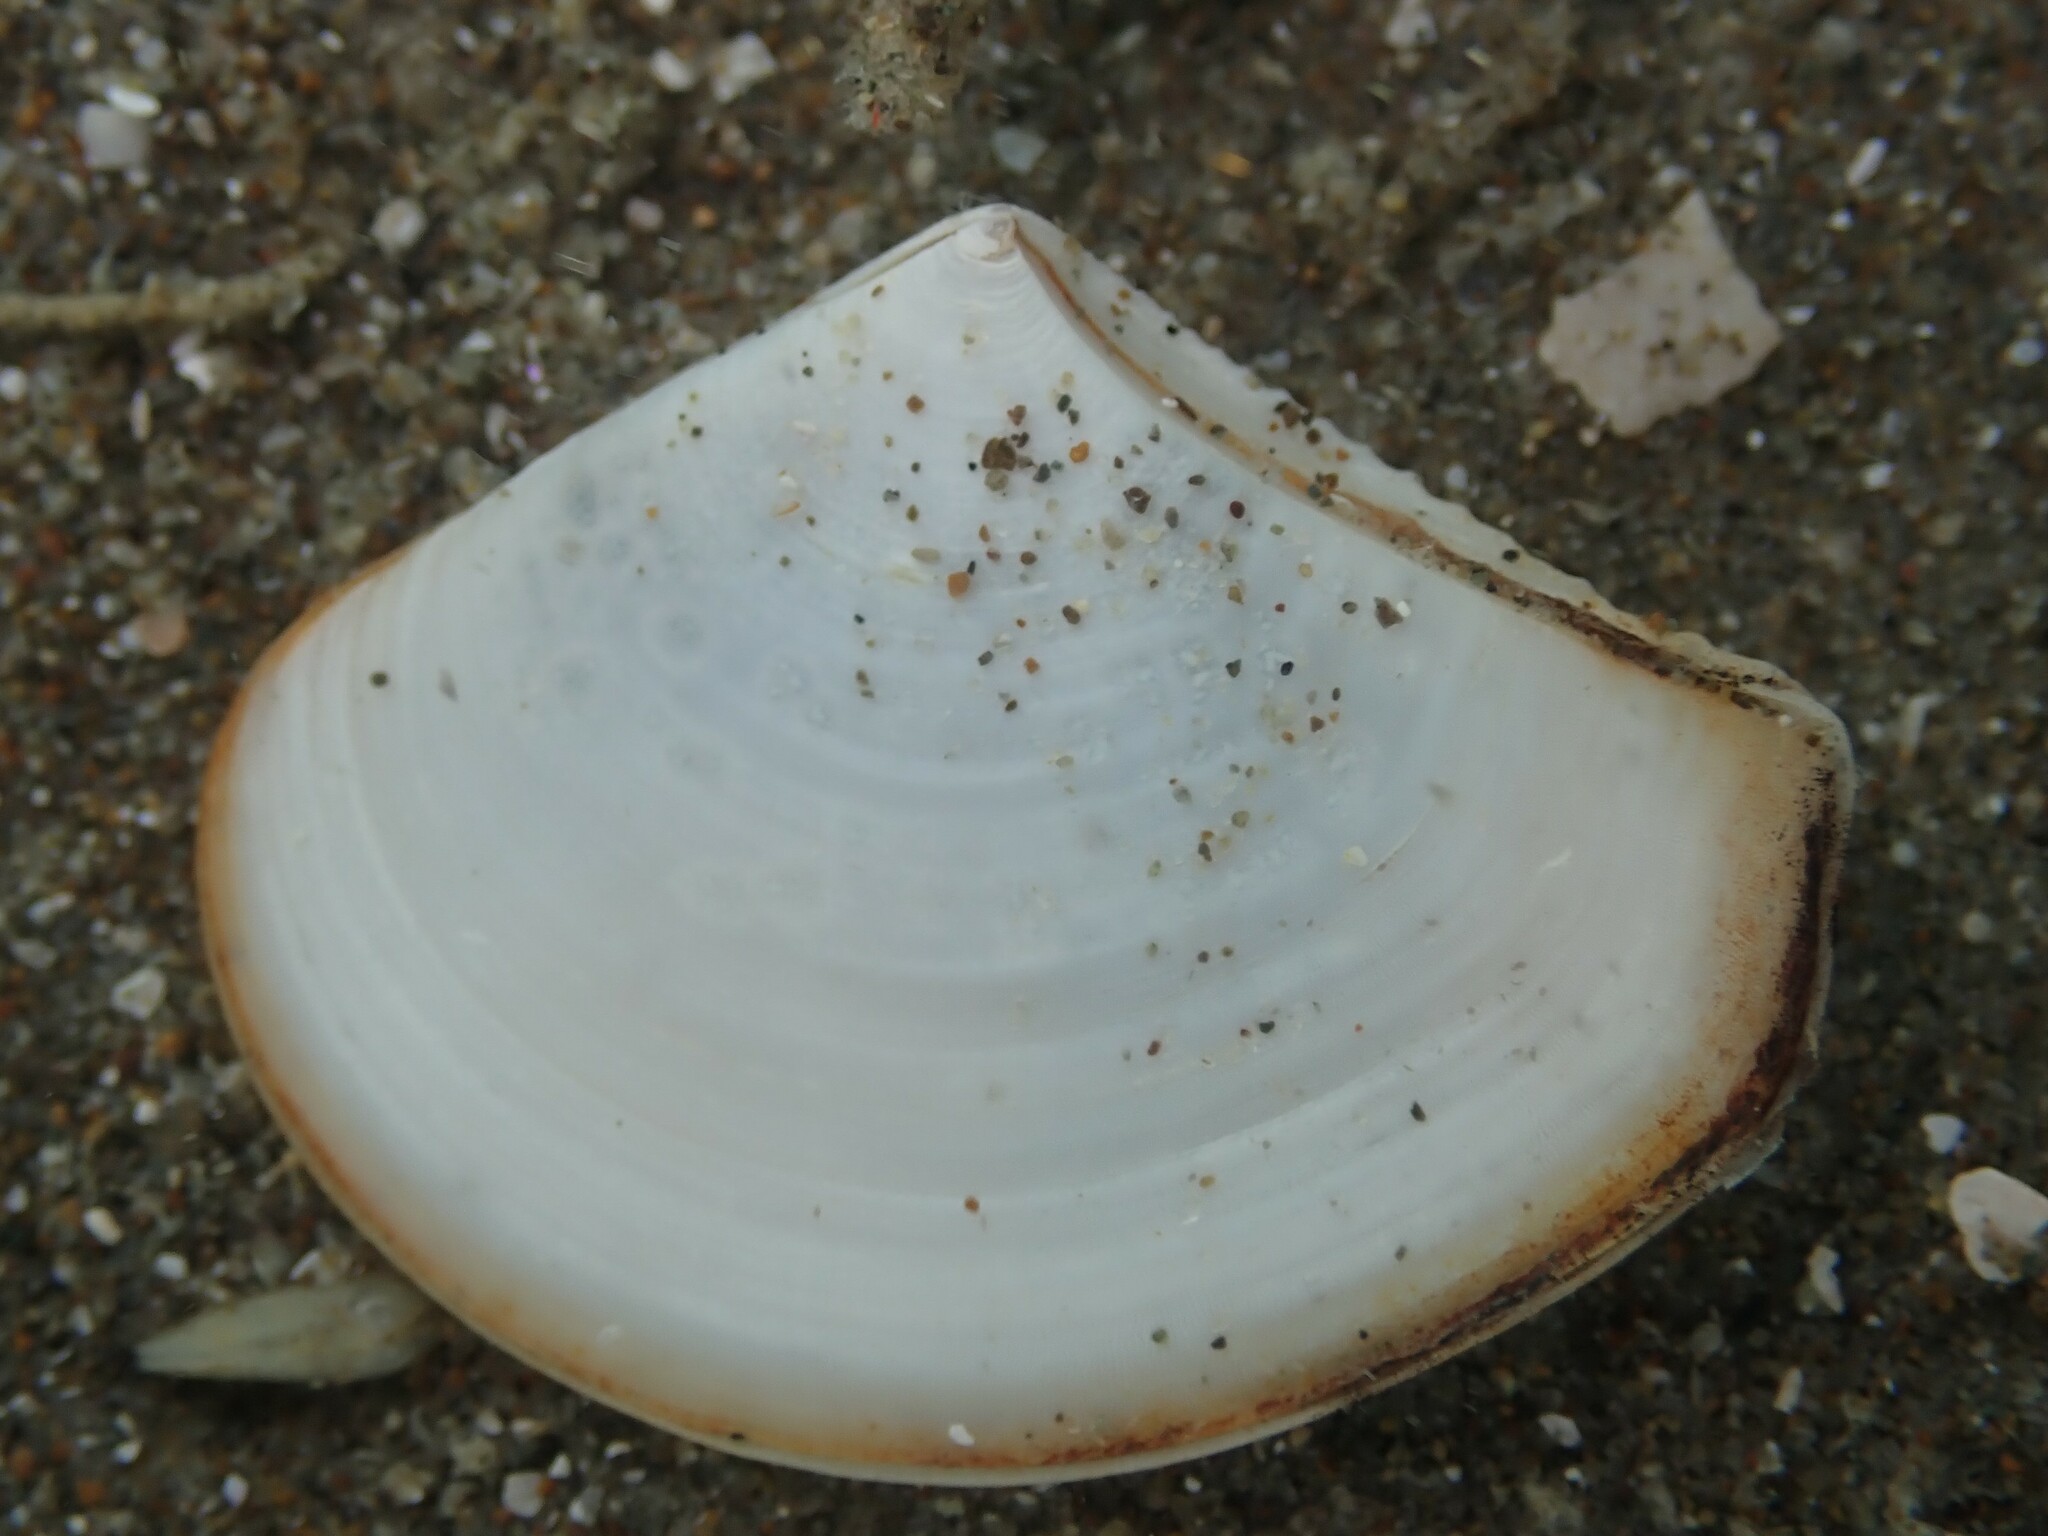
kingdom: Animalia
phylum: Mollusca
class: Bivalvia
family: Myochamidae
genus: Myadora
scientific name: Myadora striata
